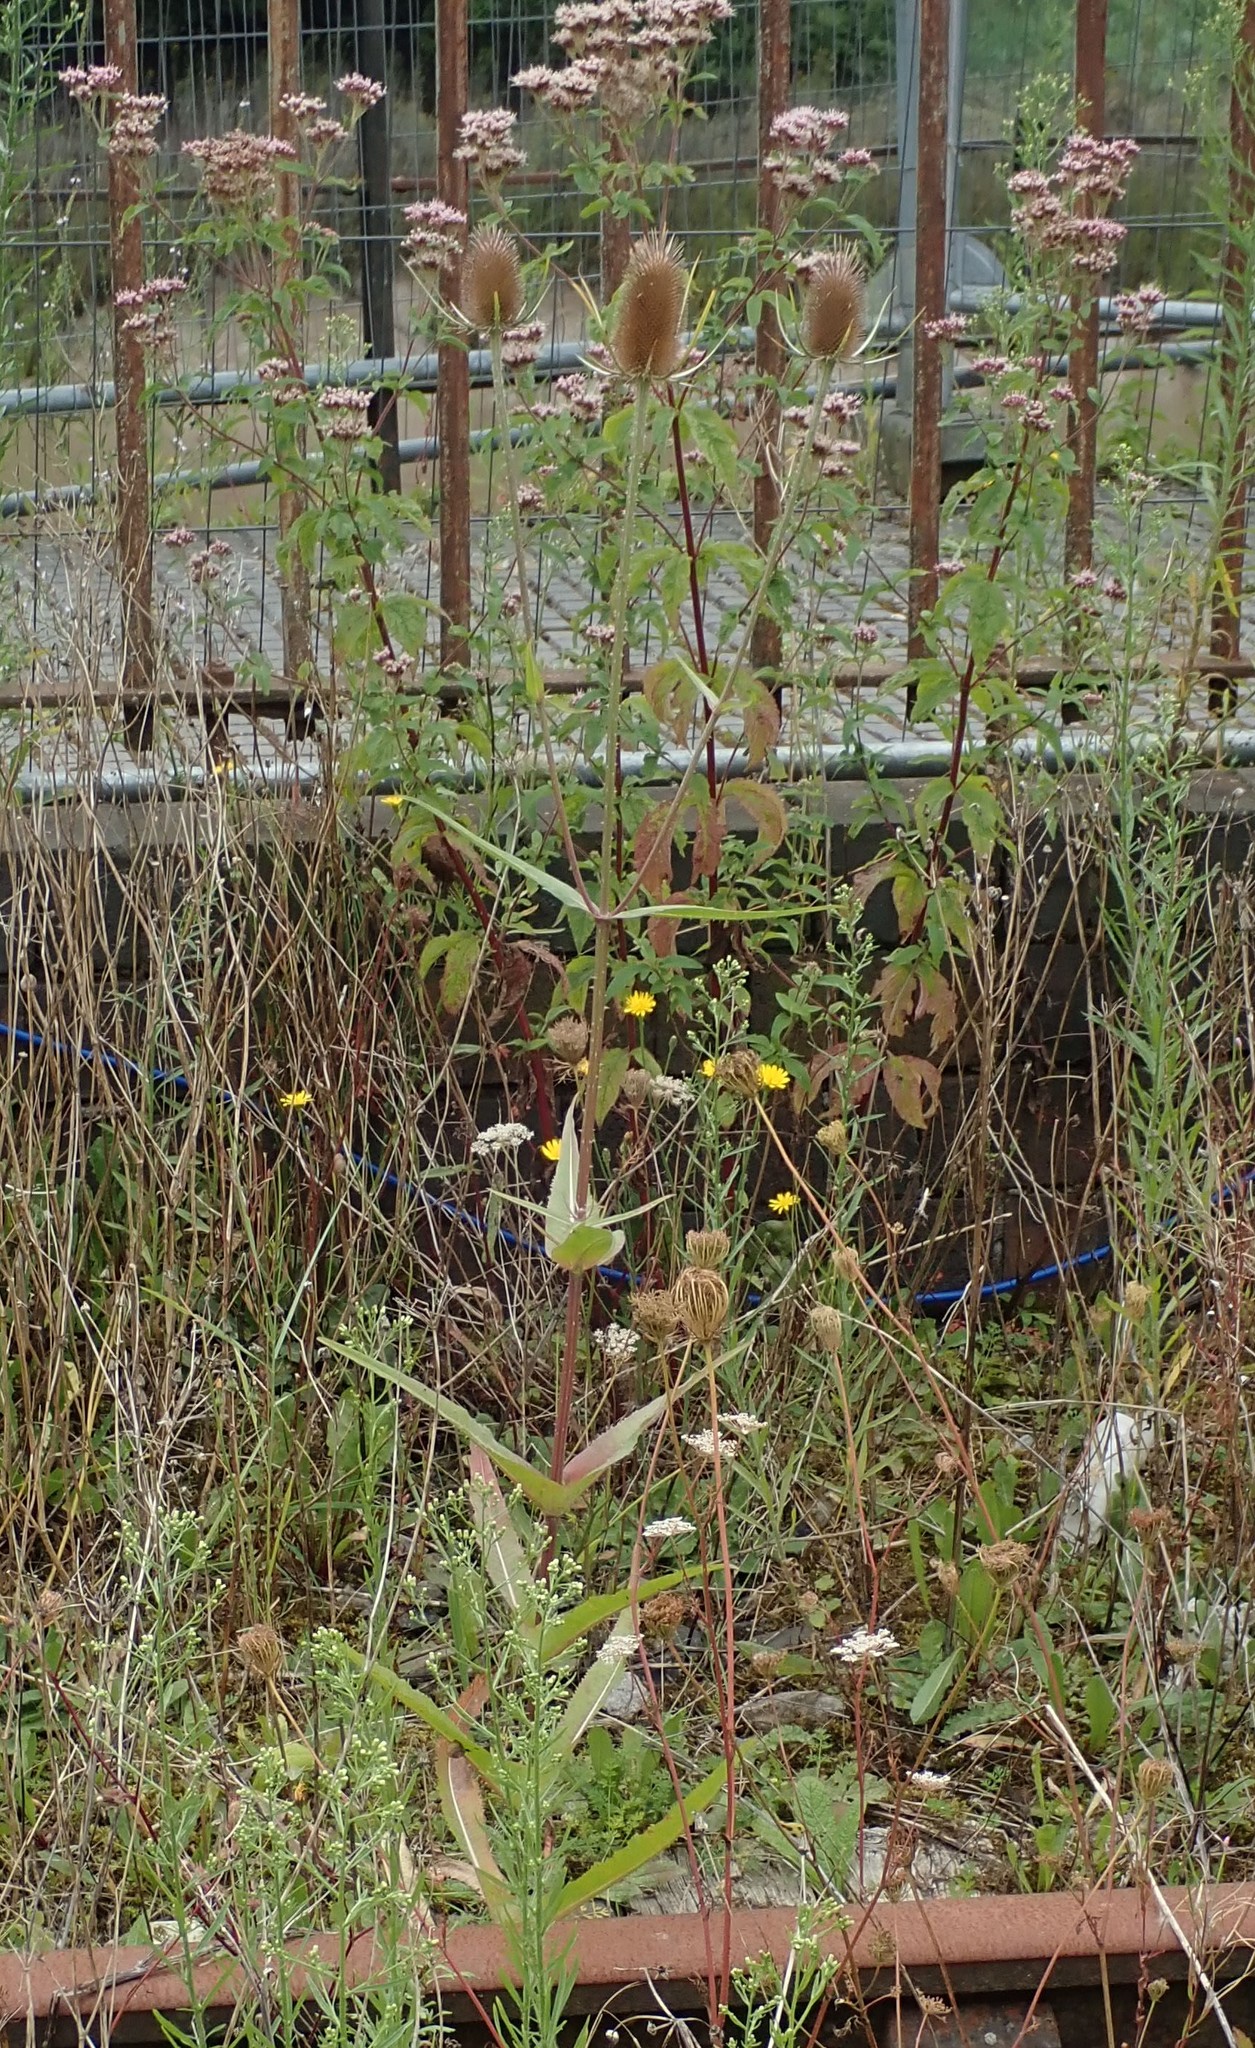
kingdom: Plantae
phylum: Tracheophyta
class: Magnoliopsida
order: Dipsacales
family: Caprifoliaceae
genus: Dipsacus
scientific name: Dipsacus fullonum
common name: Teasel
